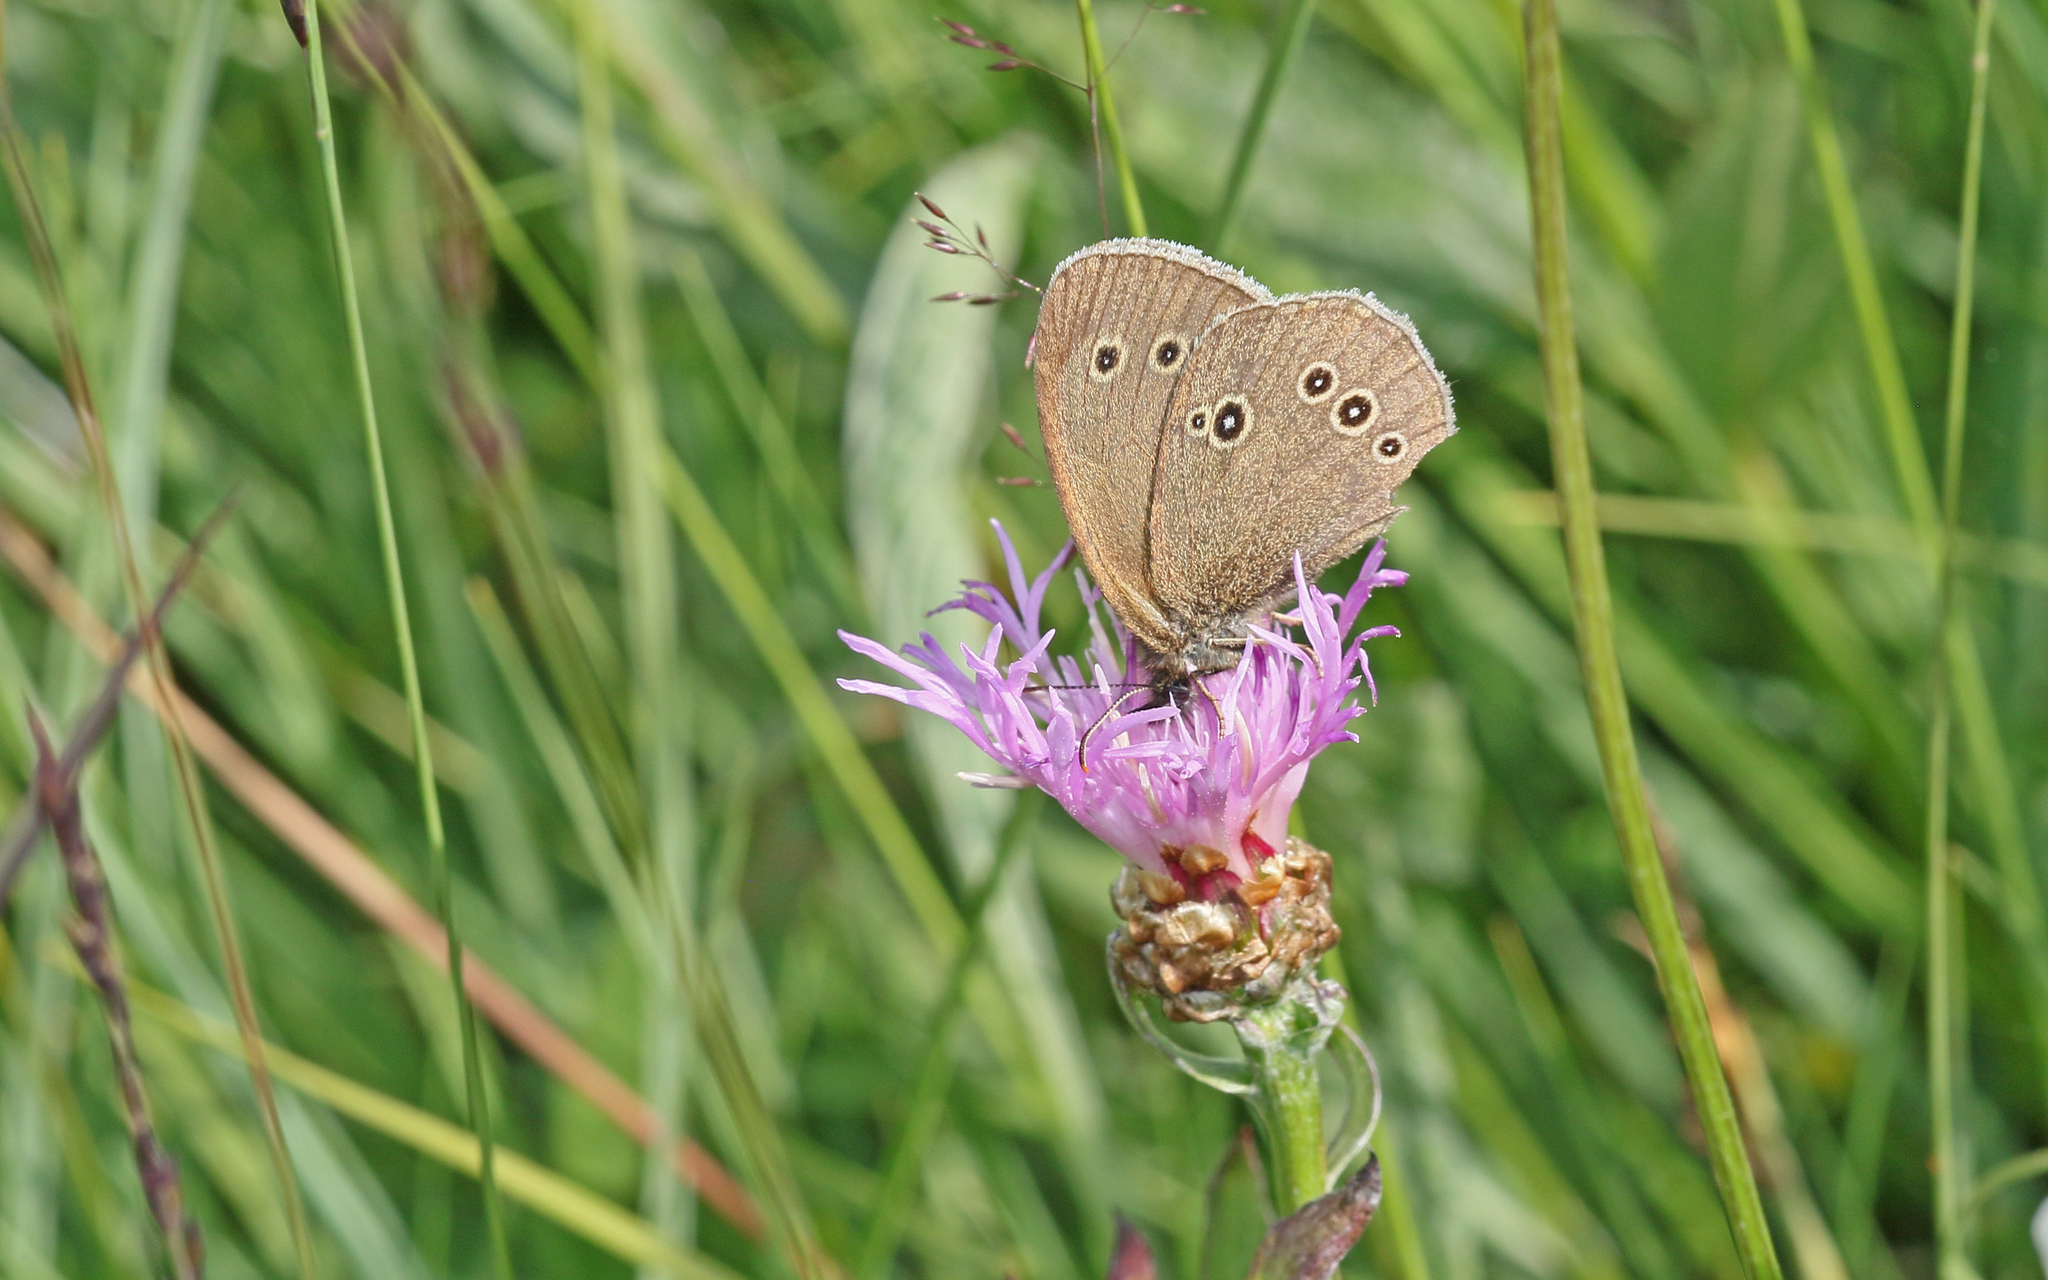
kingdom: Animalia
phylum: Arthropoda
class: Insecta
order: Lepidoptera
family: Nymphalidae
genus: Aphantopus
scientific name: Aphantopus hyperantus
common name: Ringlet
